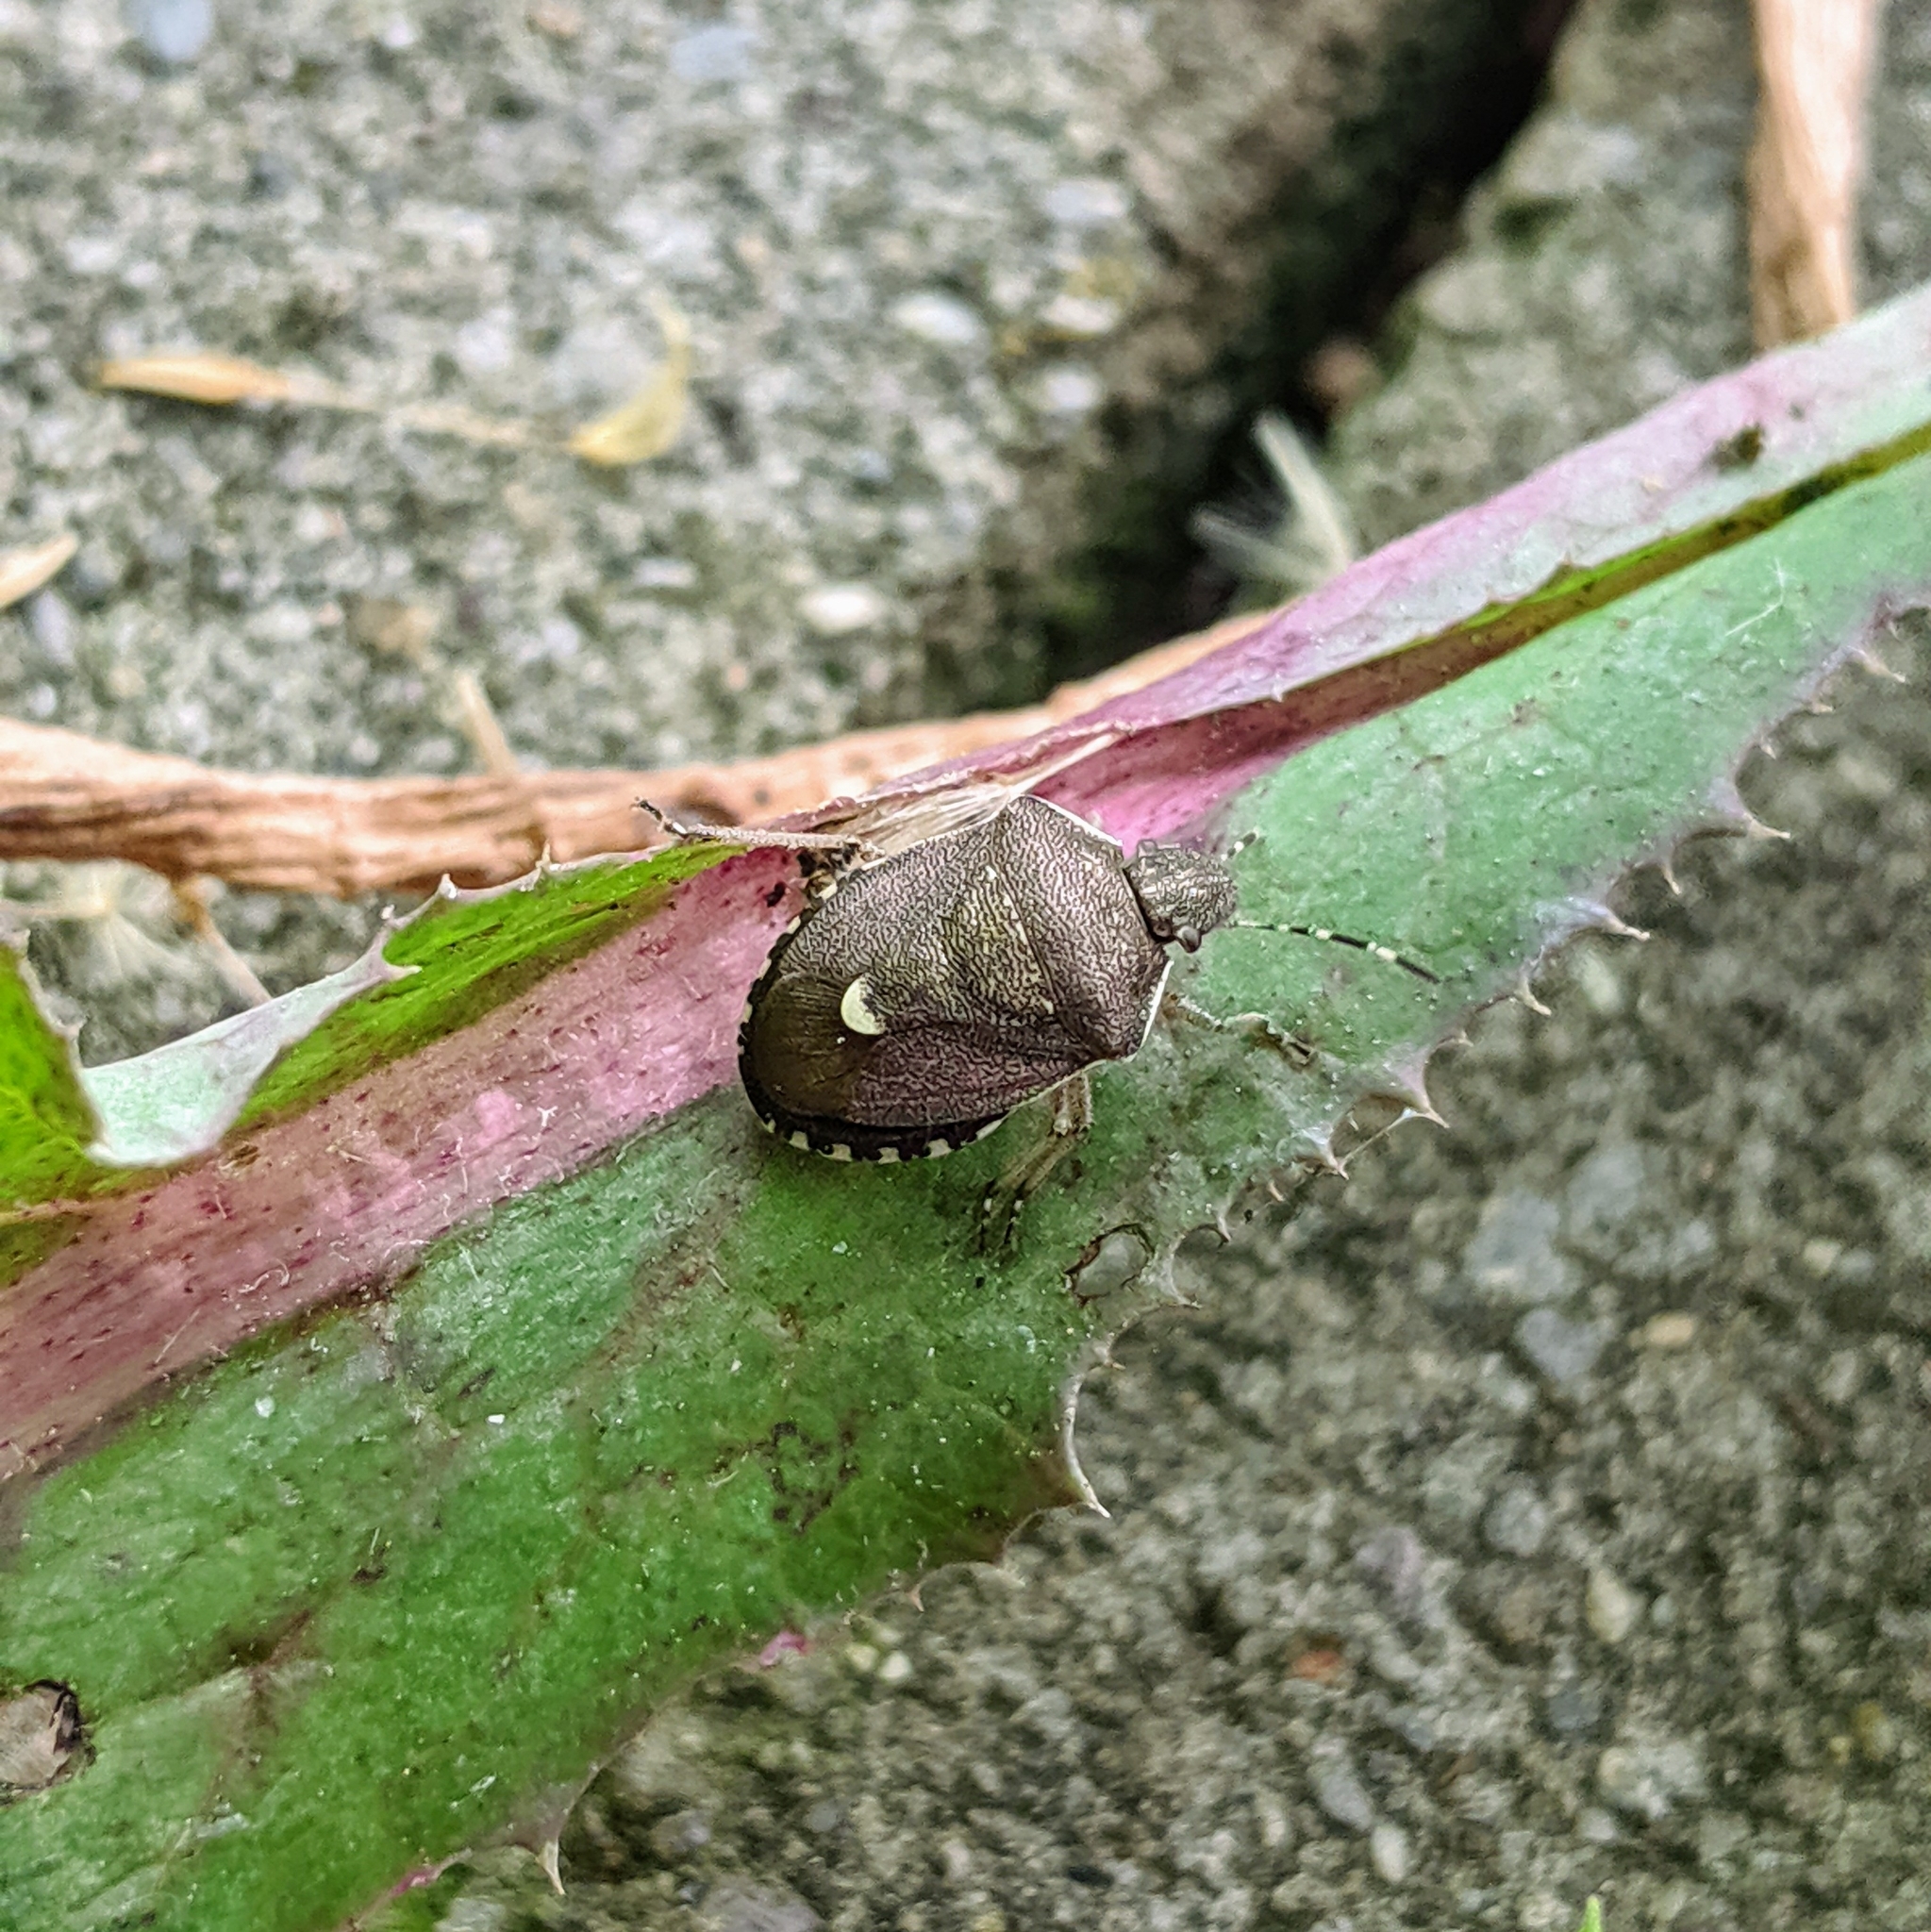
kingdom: Animalia
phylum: Arthropoda
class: Insecta
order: Hemiptera
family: Pentatomidae
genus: Holcostethus
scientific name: Holcostethus sphacelatus
